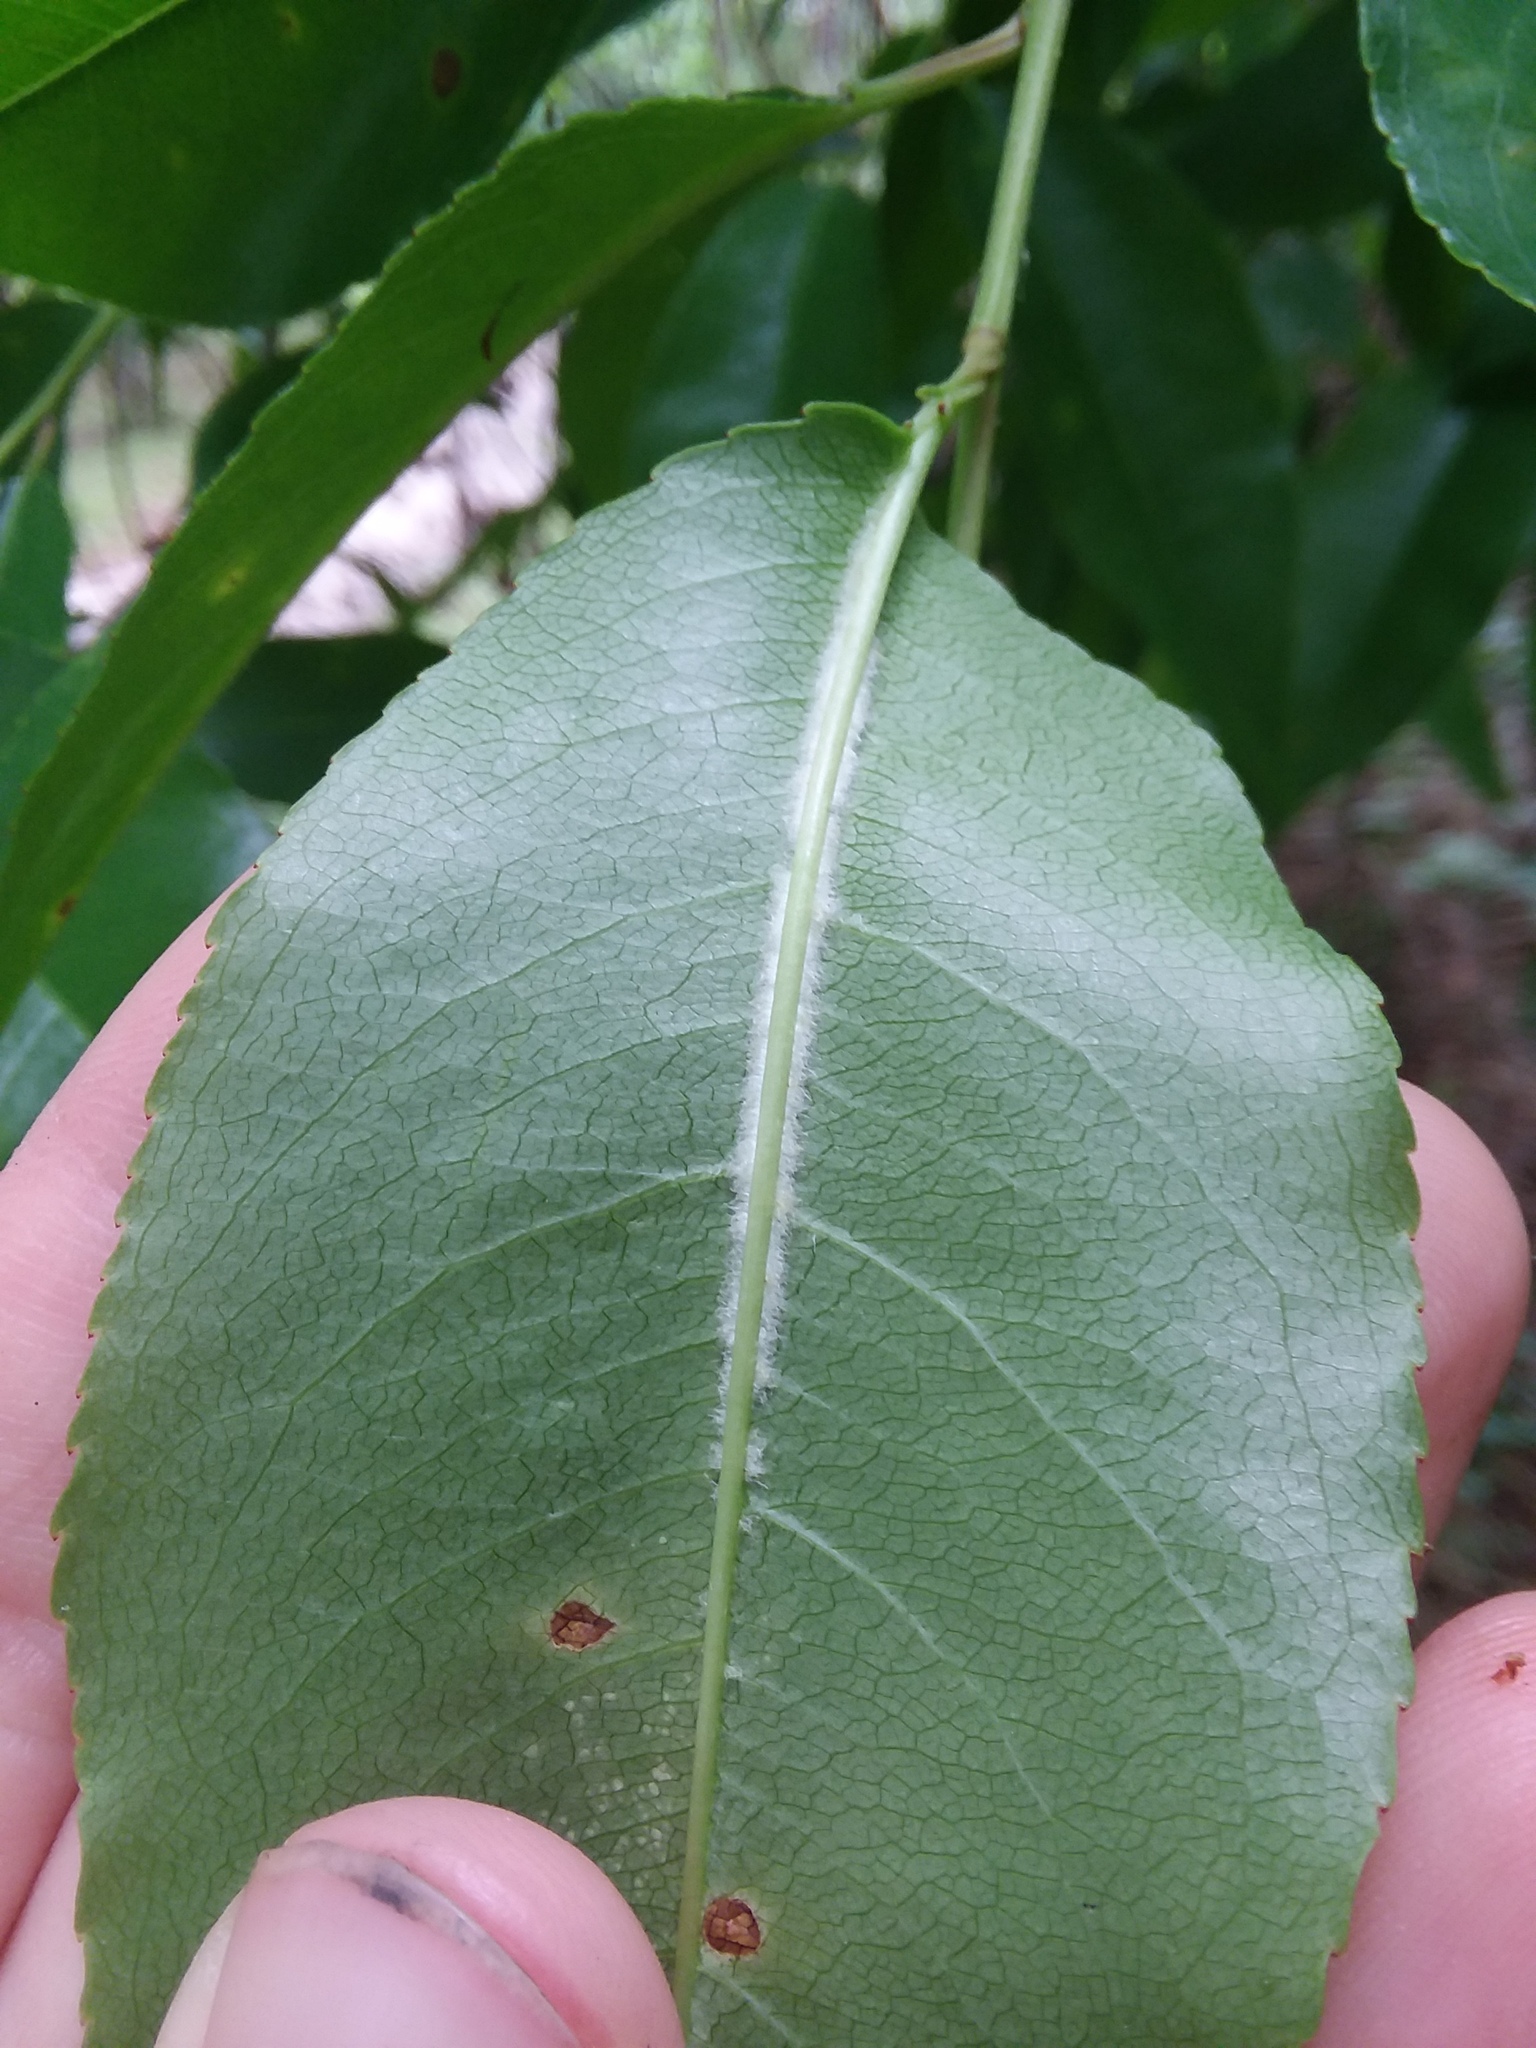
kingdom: Plantae
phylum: Tracheophyta
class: Magnoliopsida
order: Rosales
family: Rosaceae
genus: Prunus
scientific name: Prunus serotina
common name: Black cherry
